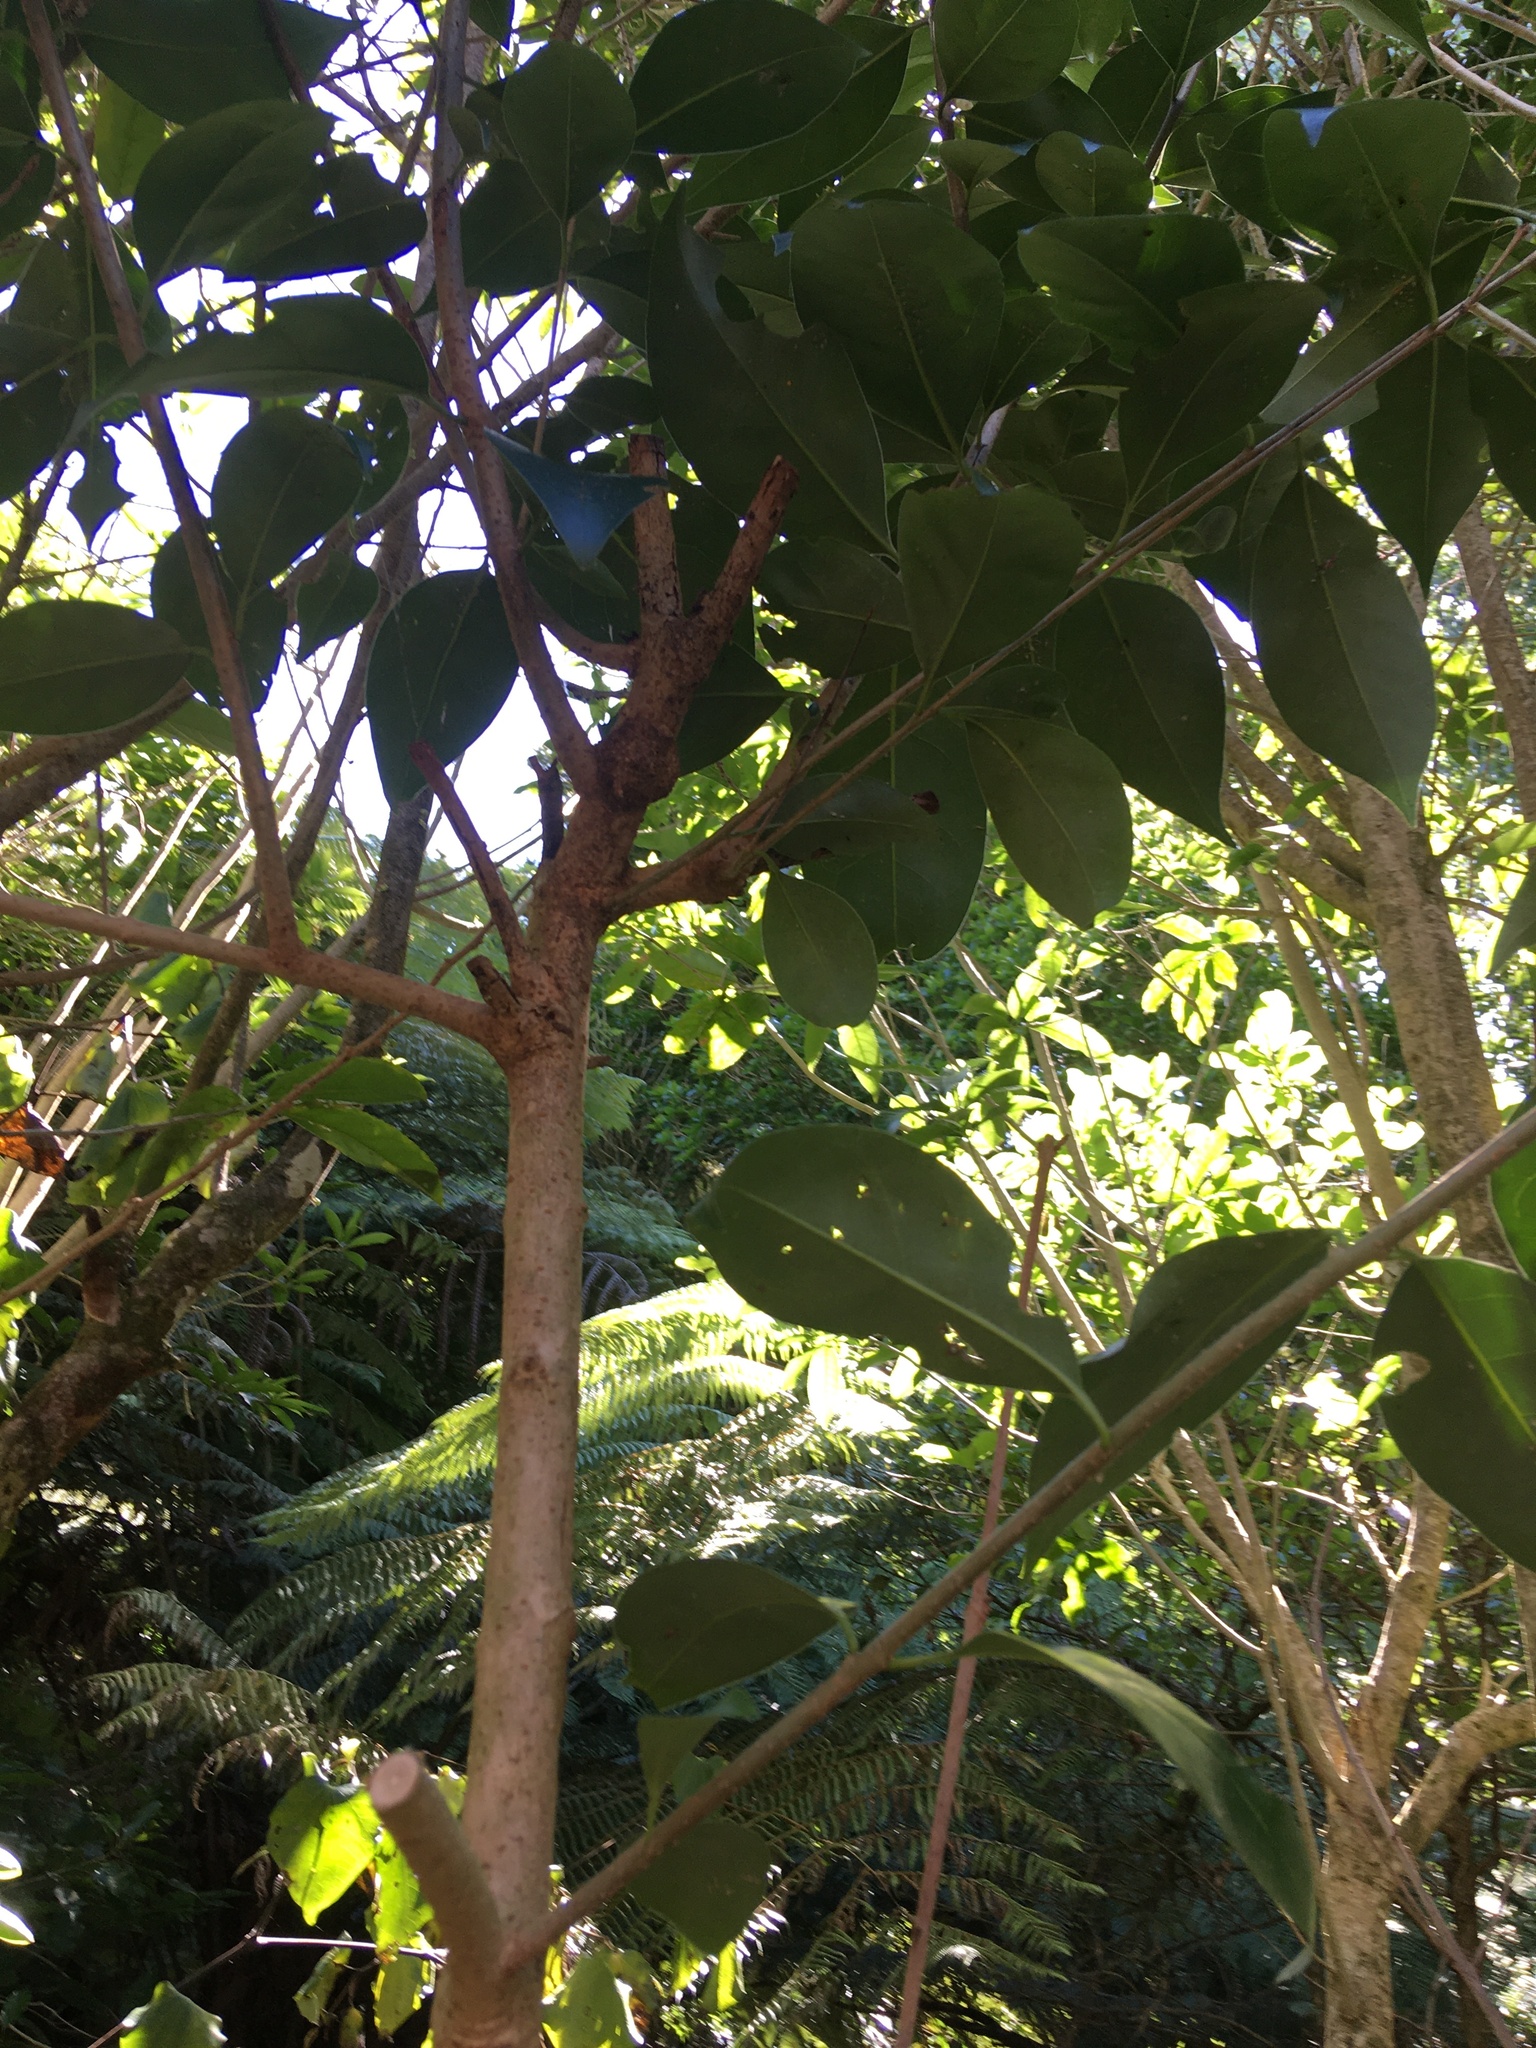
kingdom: Animalia
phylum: Arthropoda
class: Insecta
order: Lepidoptera
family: Hepialidae
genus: Aenetus
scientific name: Aenetus virescens
